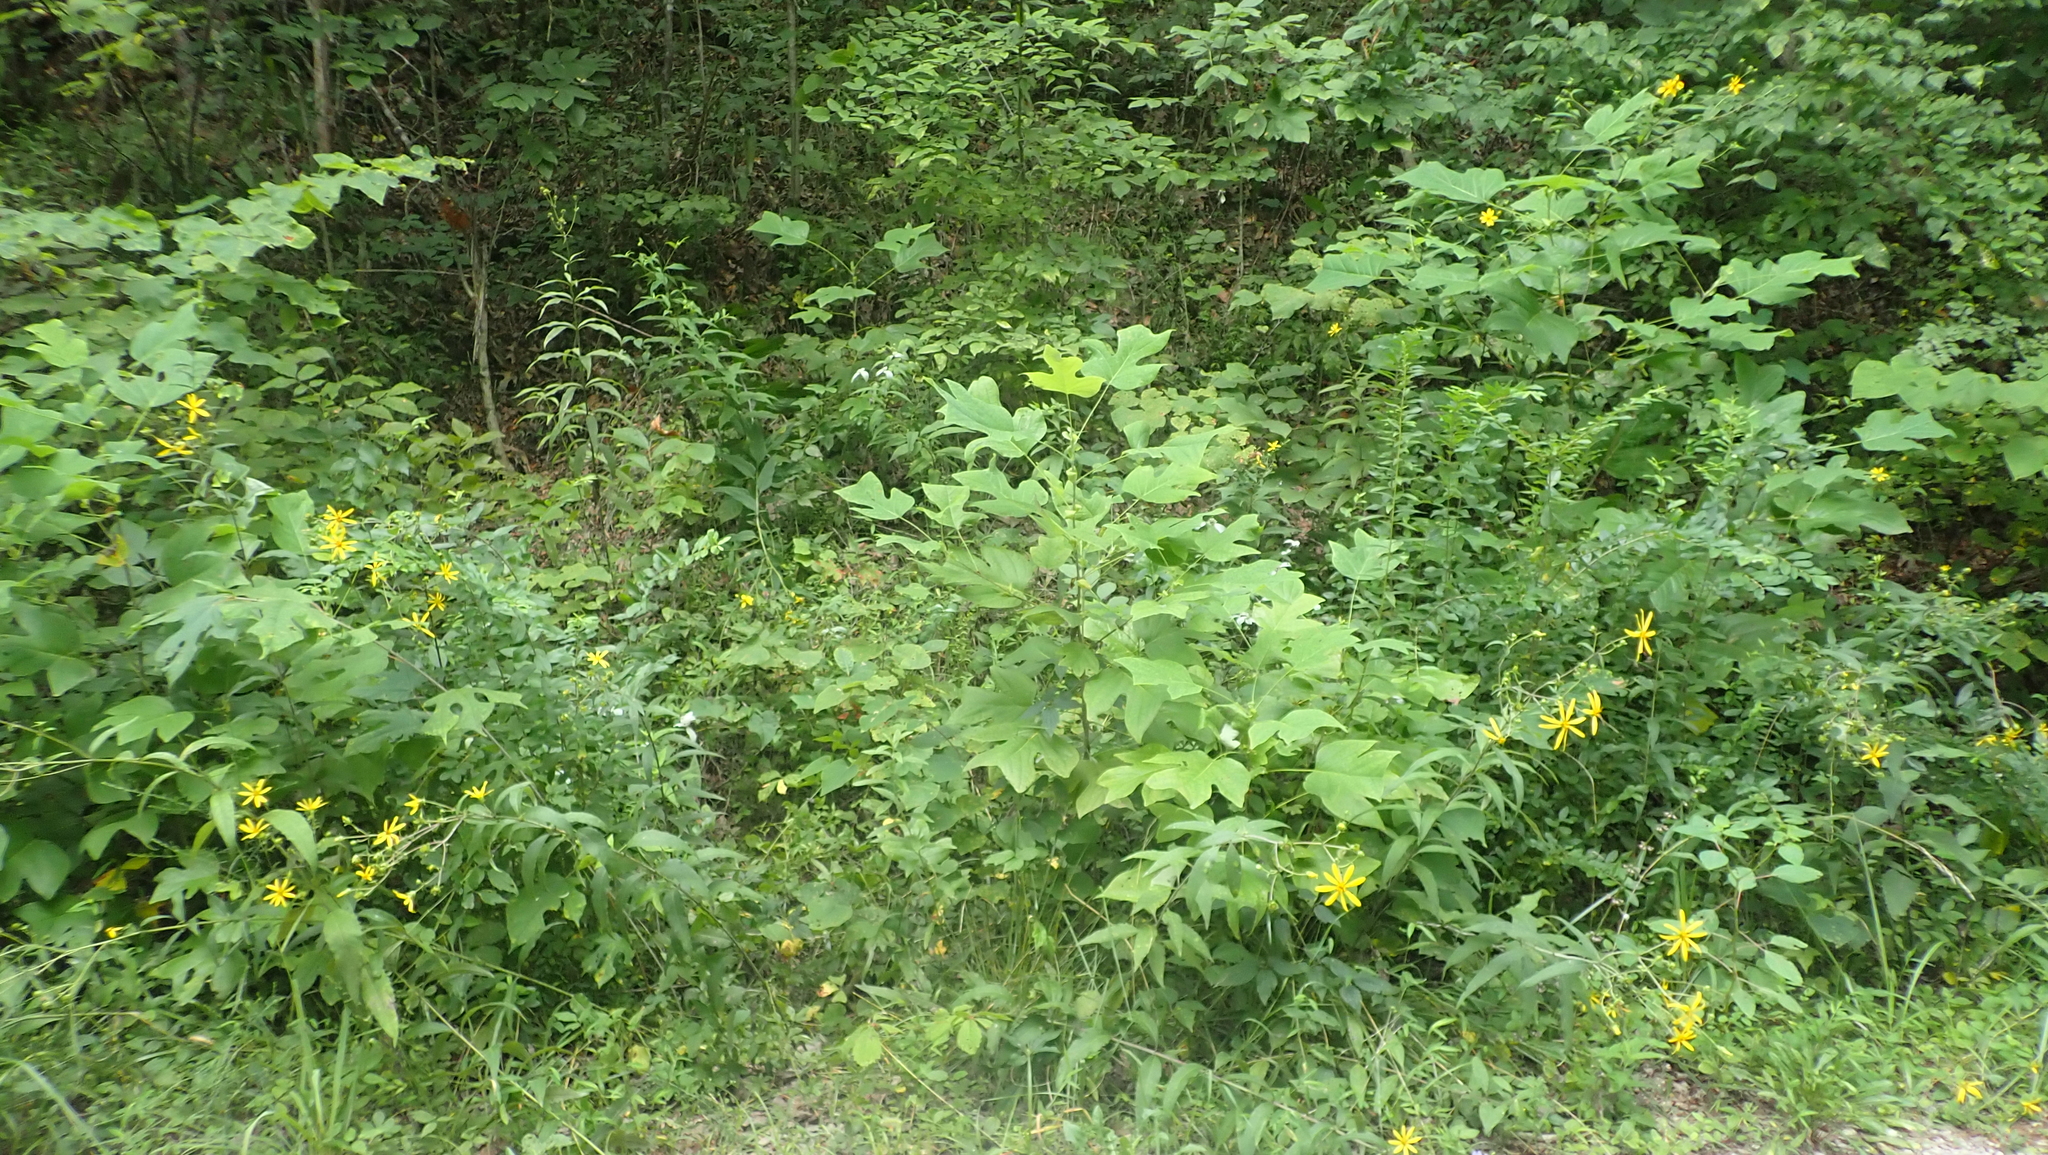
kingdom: Plantae
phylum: Tracheophyta
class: Magnoliopsida
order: Magnoliales
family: Magnoliaceae
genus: Liriodendron
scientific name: Liriodendron tulipifera
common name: Tulip tree
